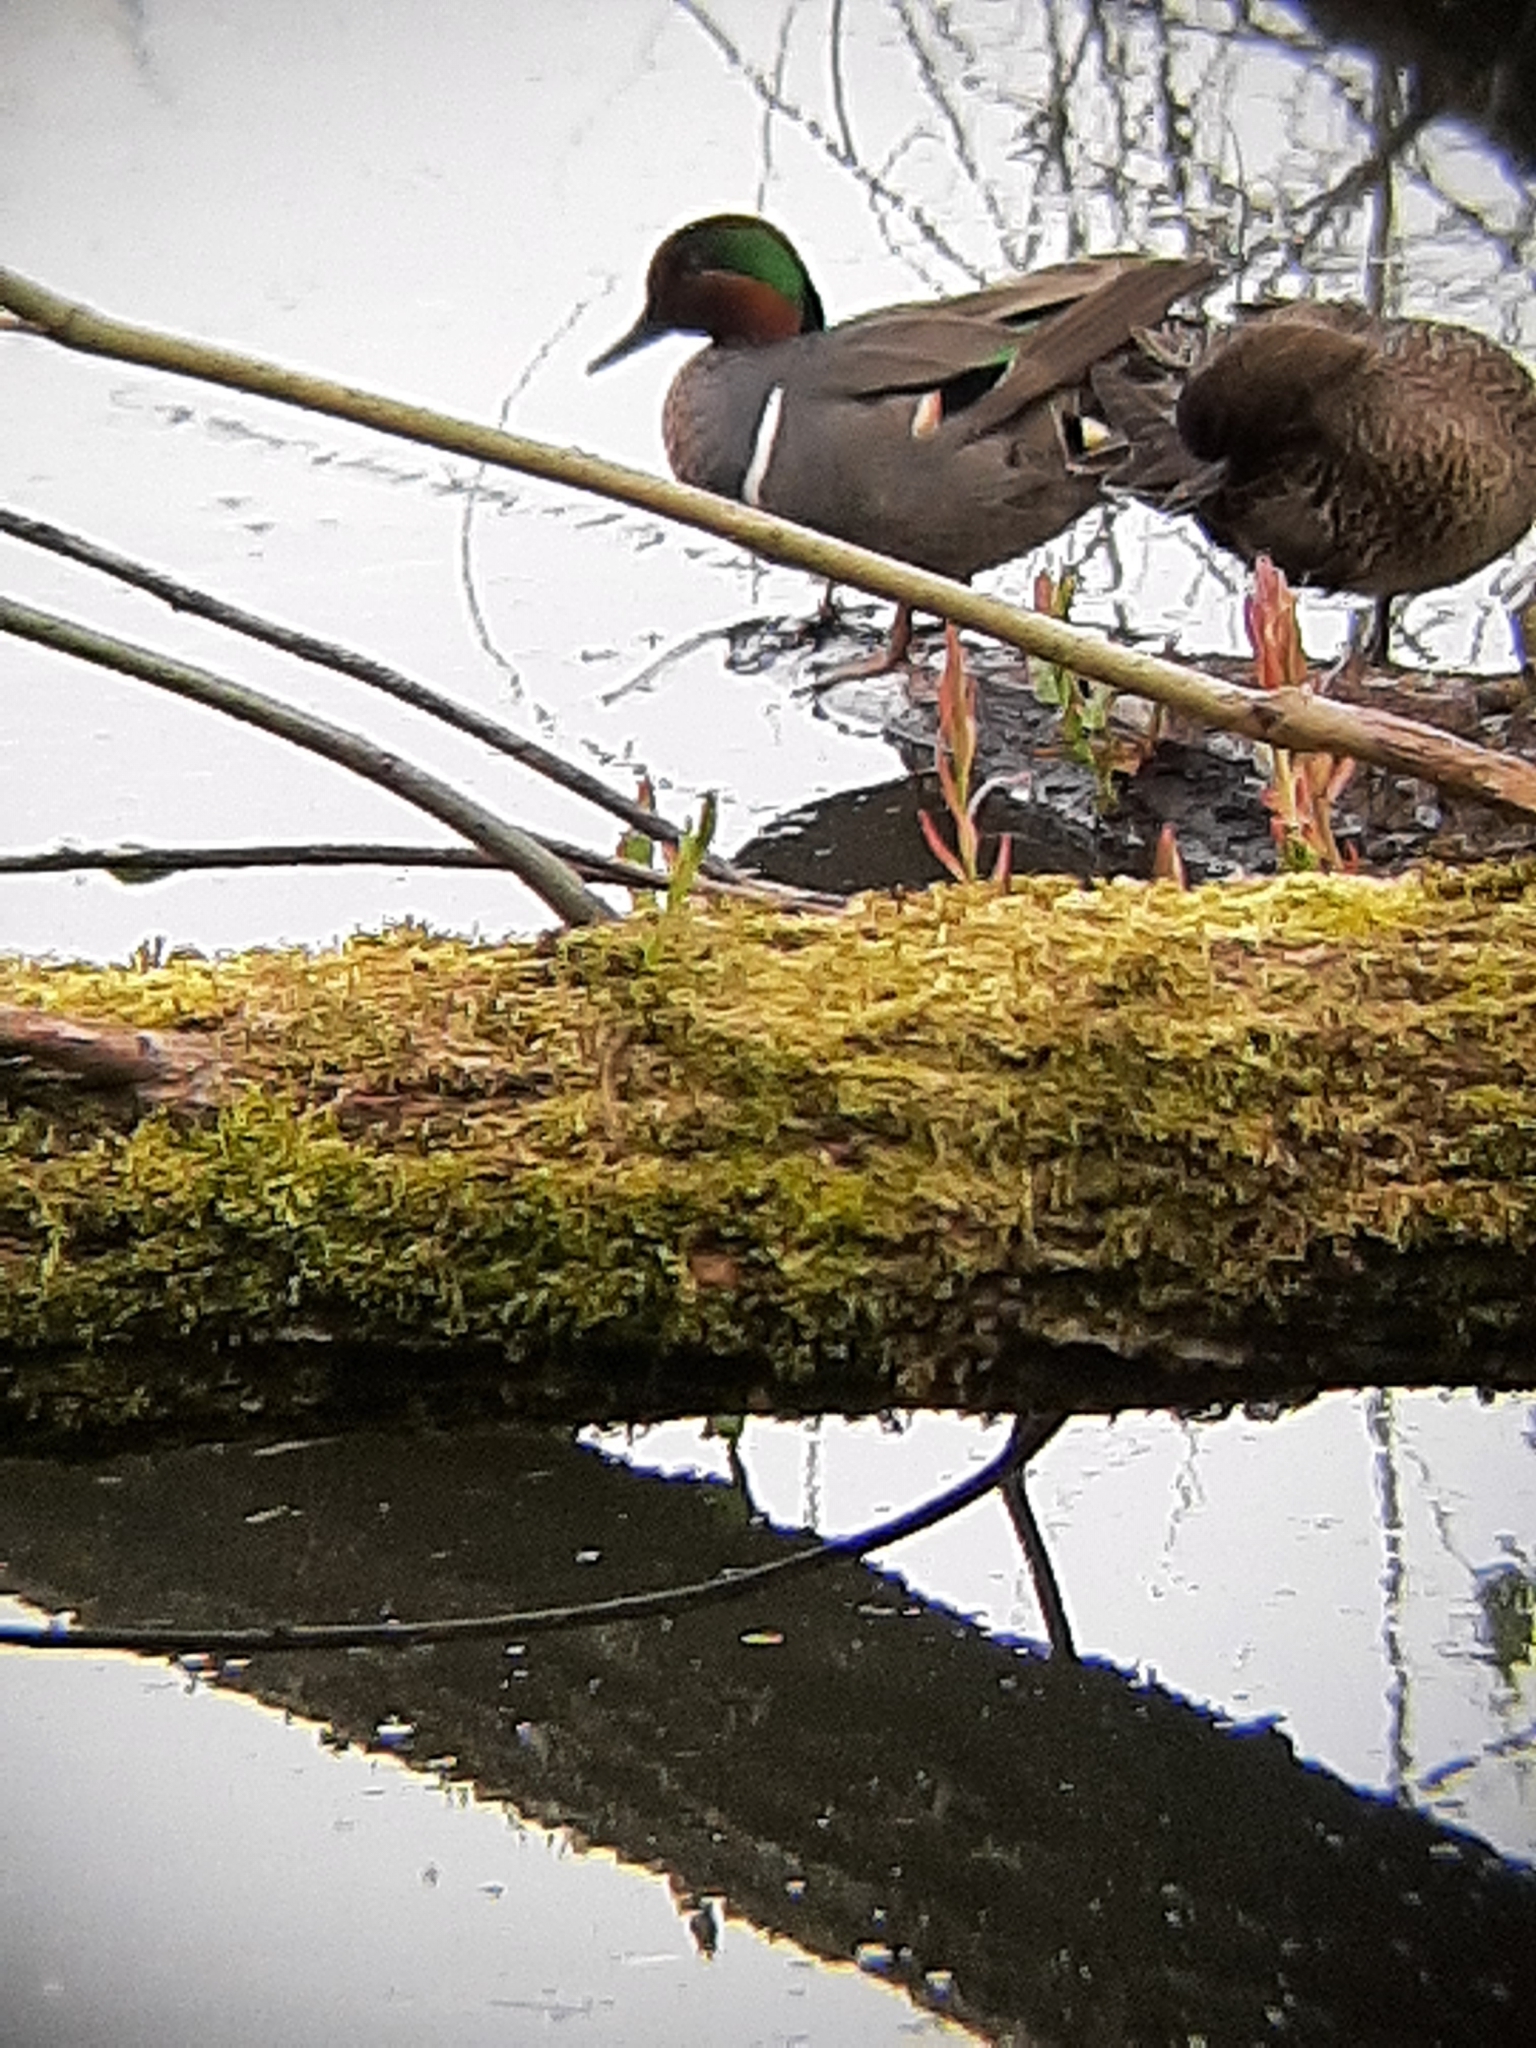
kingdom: Animalia
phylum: Chordata
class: Aves
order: Anseriformes
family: Anatidae
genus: Anas
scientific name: Anas crecca
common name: Eurasian teal
